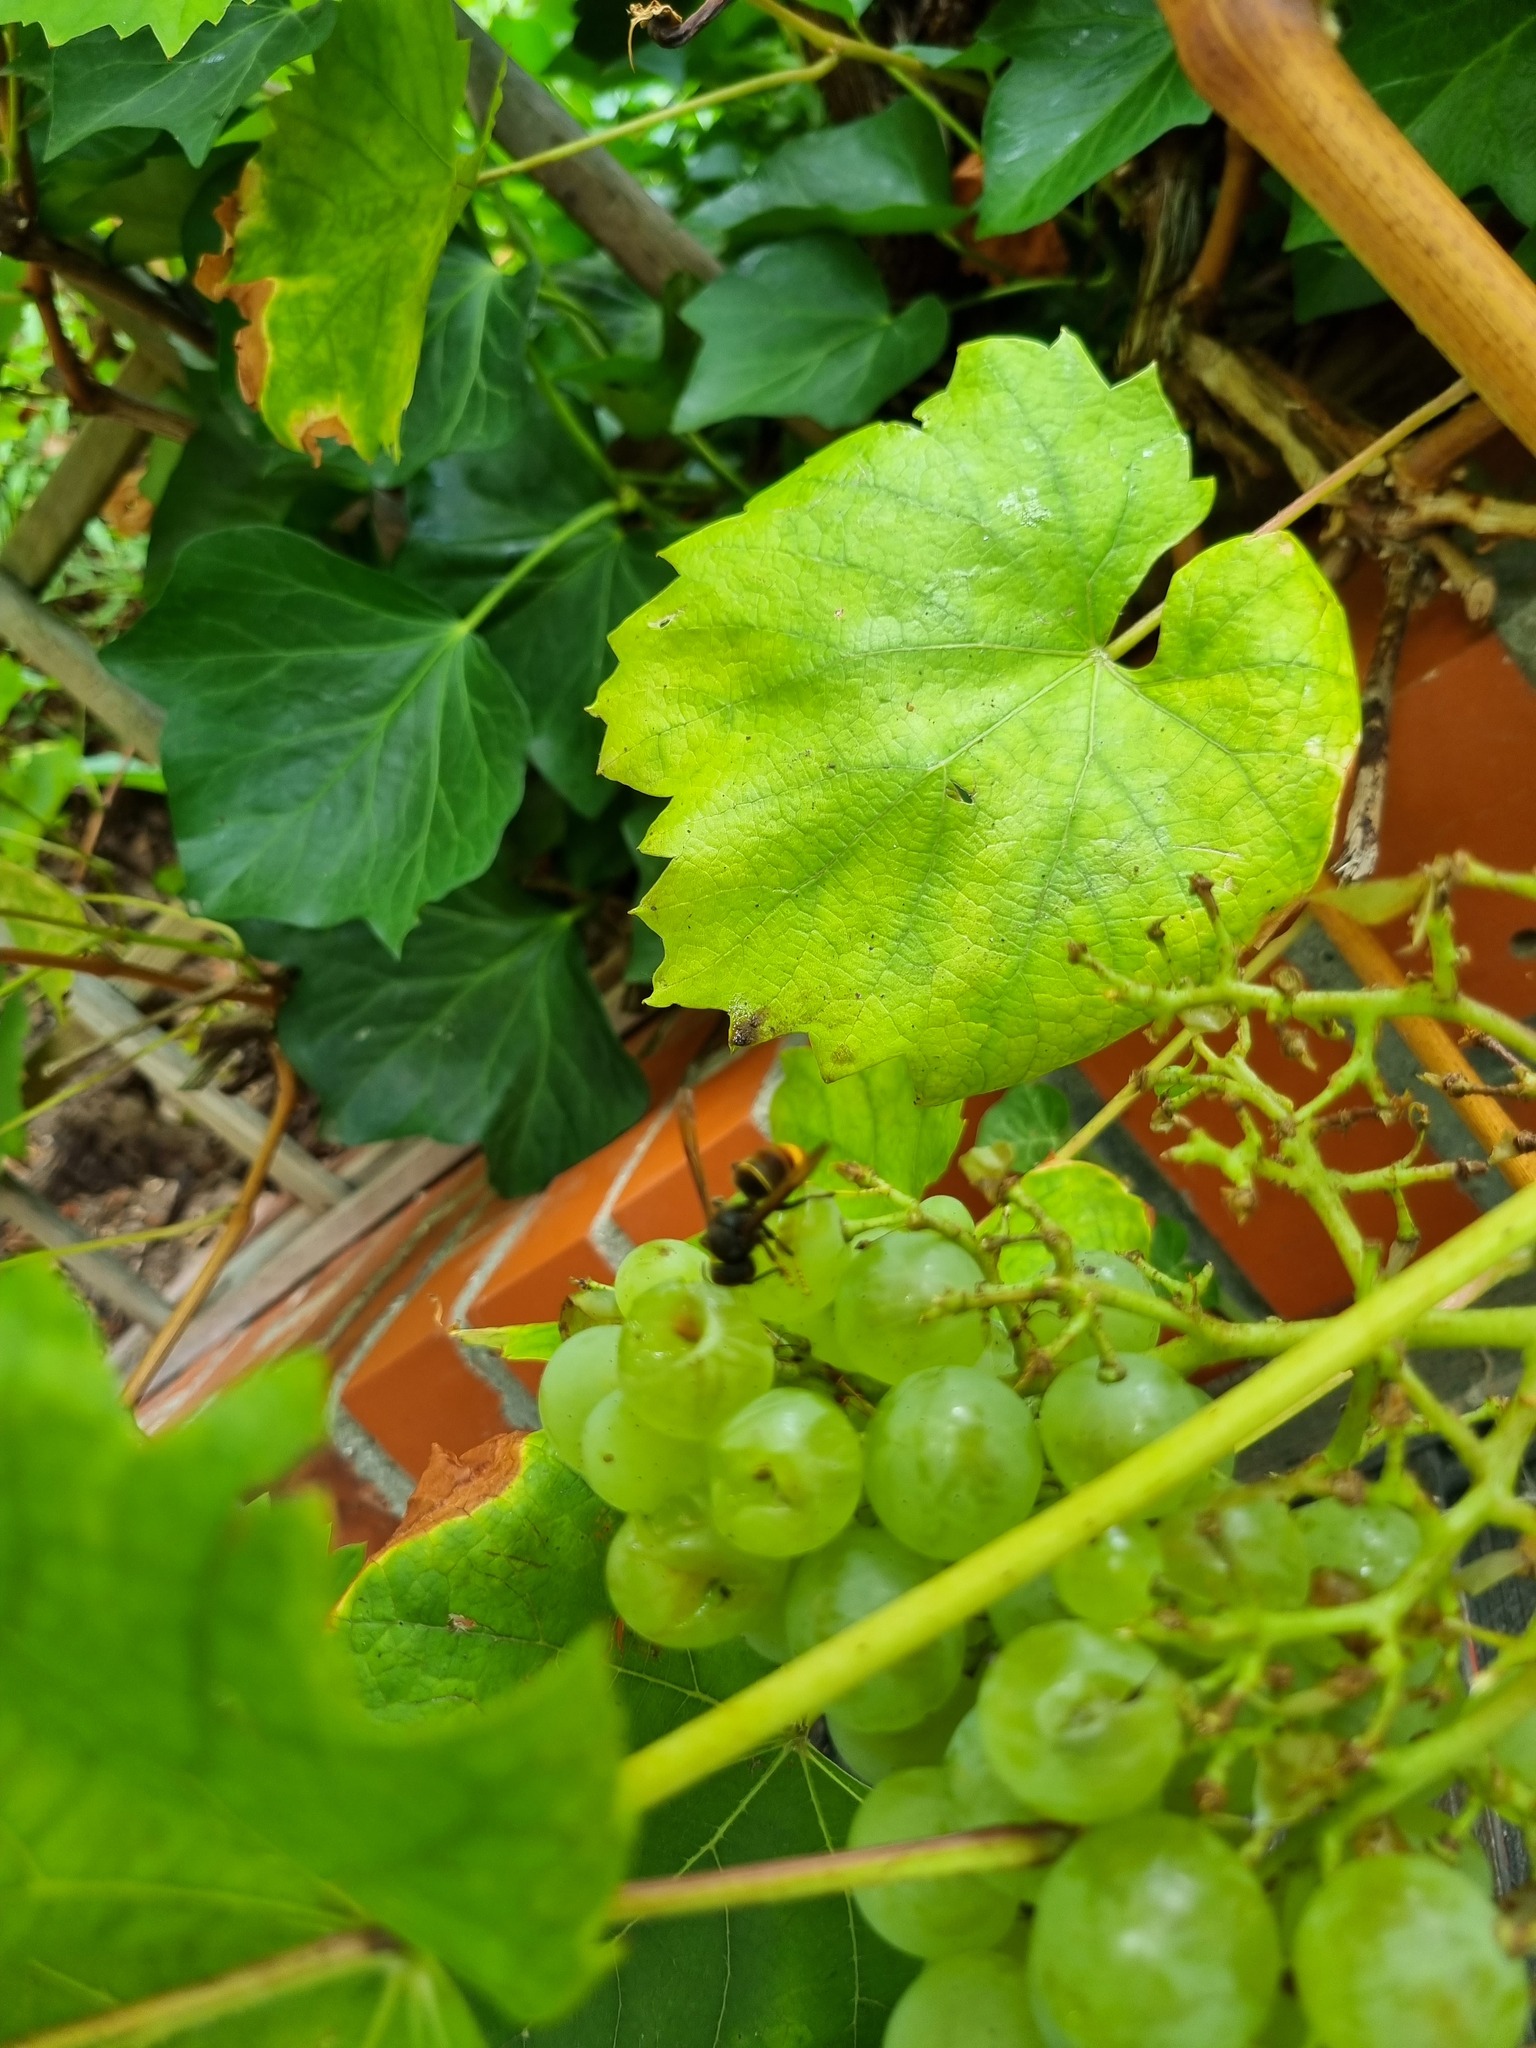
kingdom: Animalia
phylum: Arthropoda
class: Insecta
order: Hymenoptera
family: Vespidae
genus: Vespa
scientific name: Vespa velutina
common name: Asian hornet
